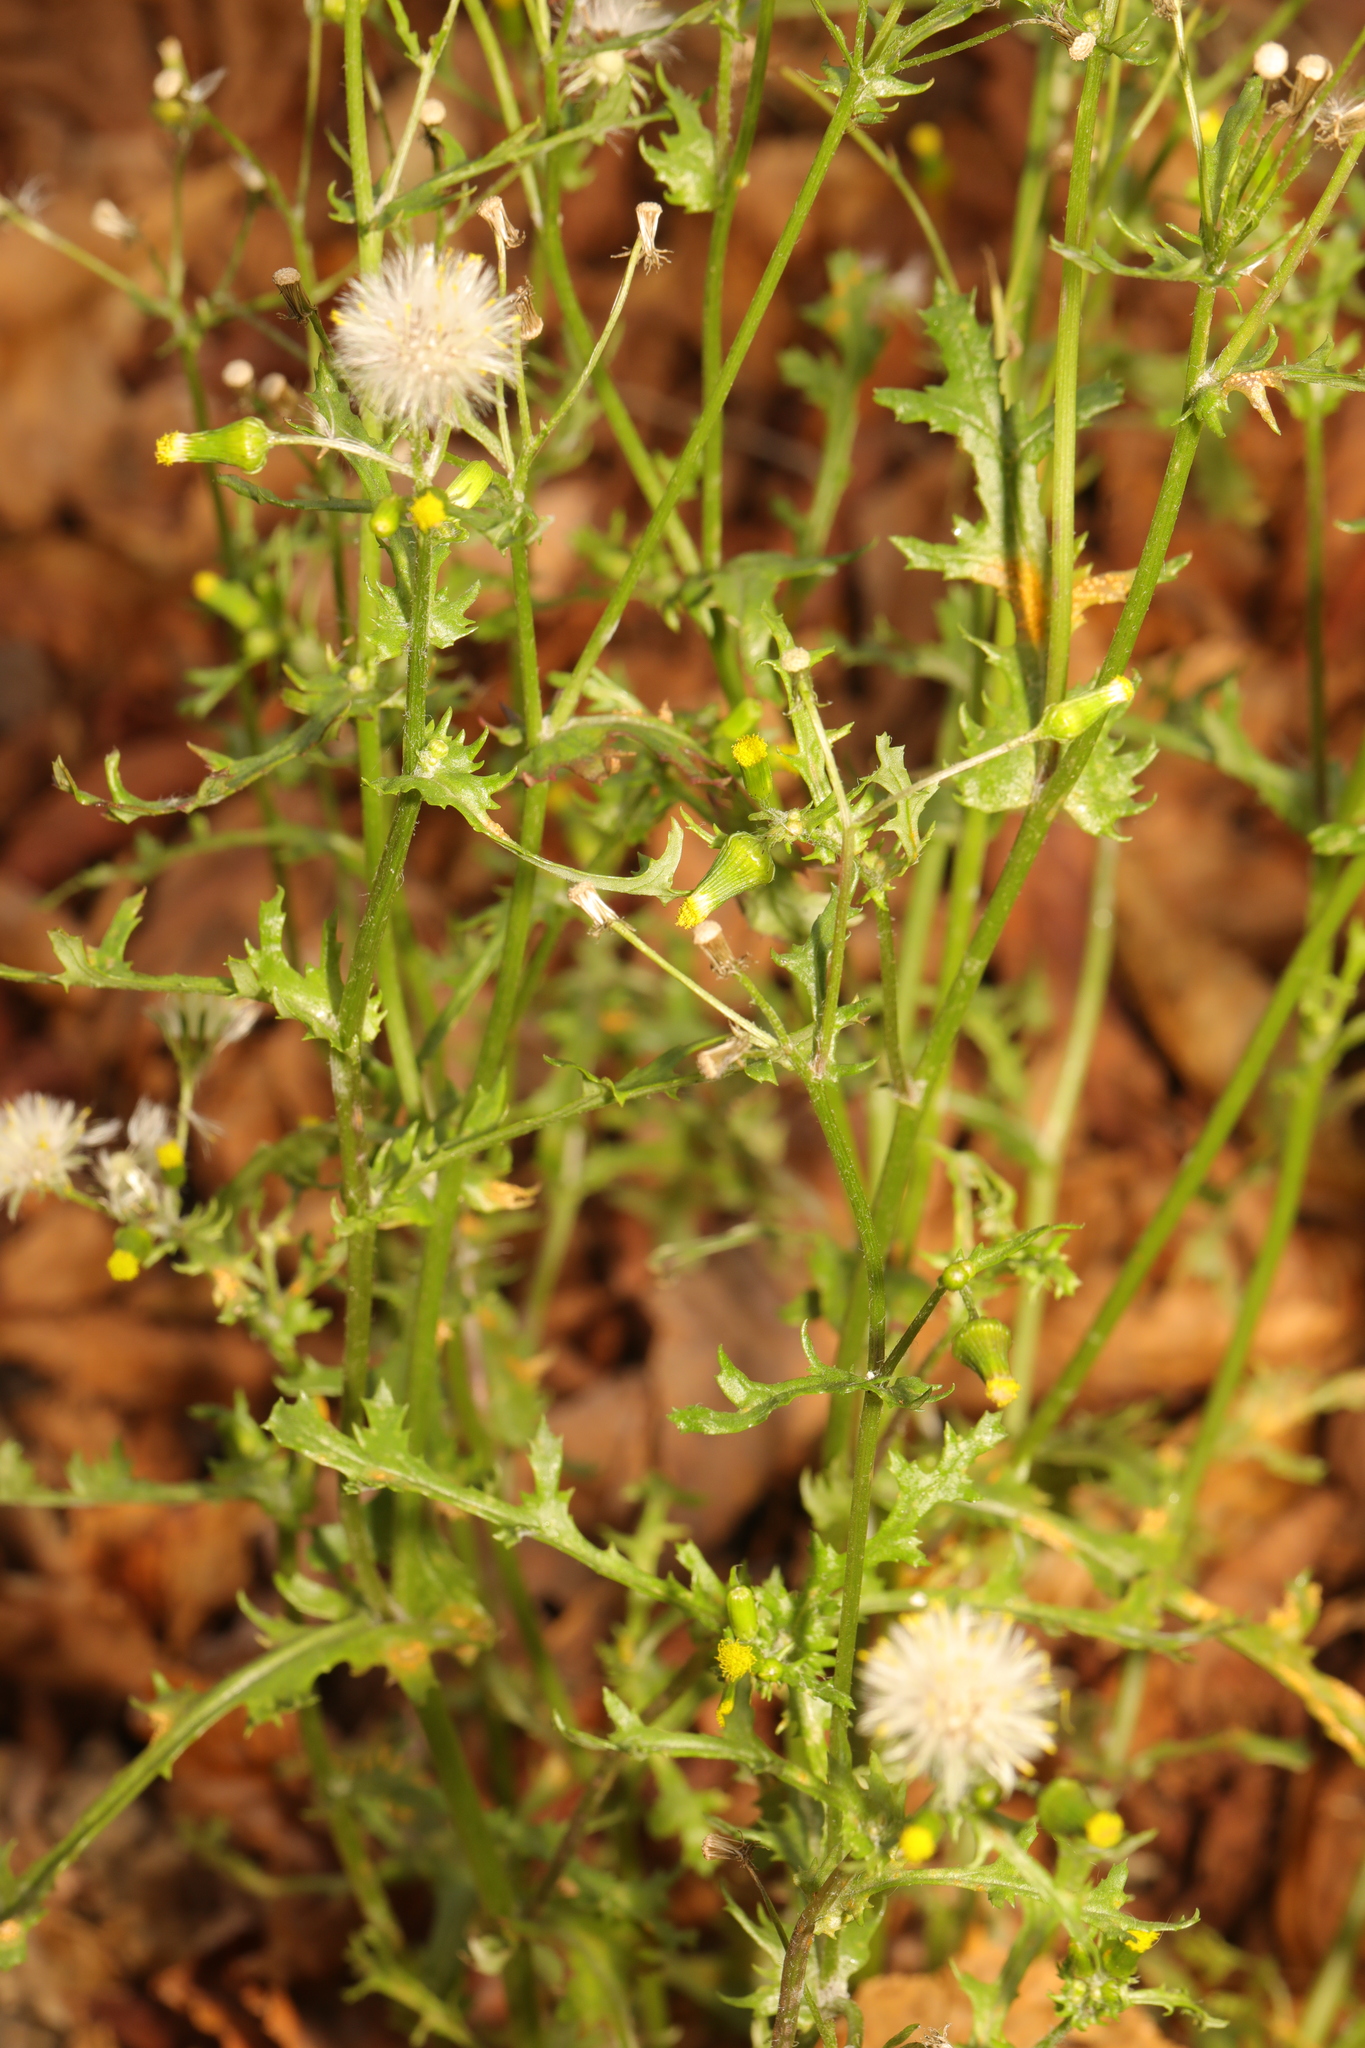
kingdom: Plantae
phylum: Tracheophyta
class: Magnoliopsida
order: Asterales
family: Asteraceae
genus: Senecio
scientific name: Senecio vulgaris
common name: Old-man-in-the-spring
